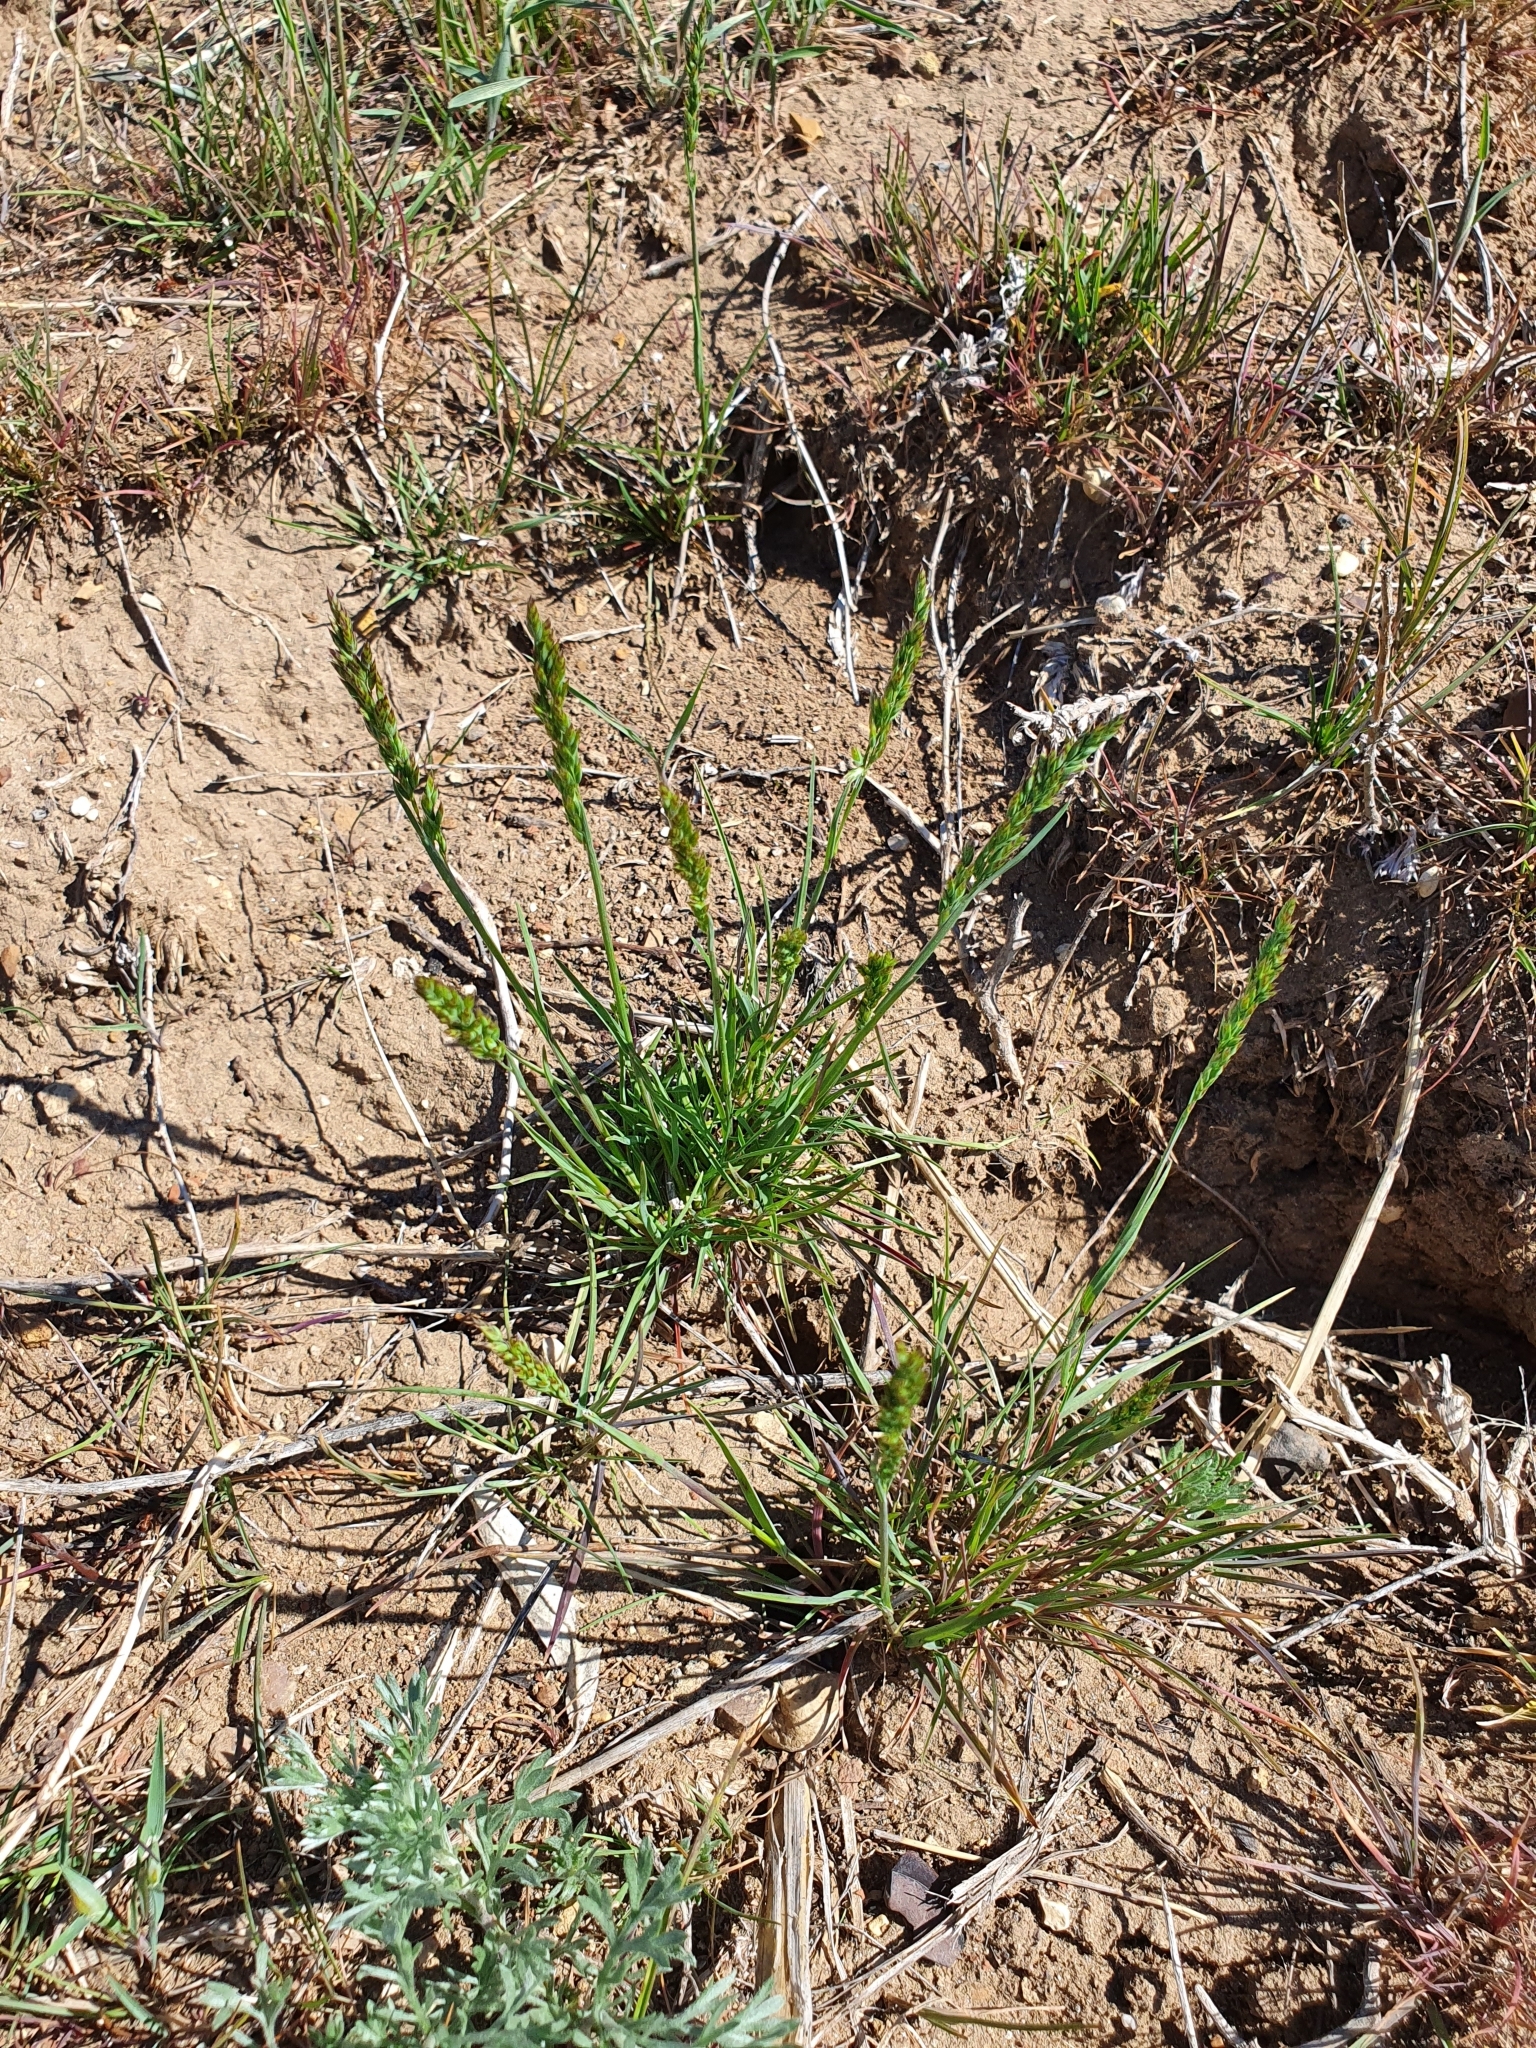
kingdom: Plantae
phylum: Tracheophyta
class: Liliopsida
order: Poales
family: Poaceae
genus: Poa
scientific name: Poa bulbosa
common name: Bulbous bluegrass
